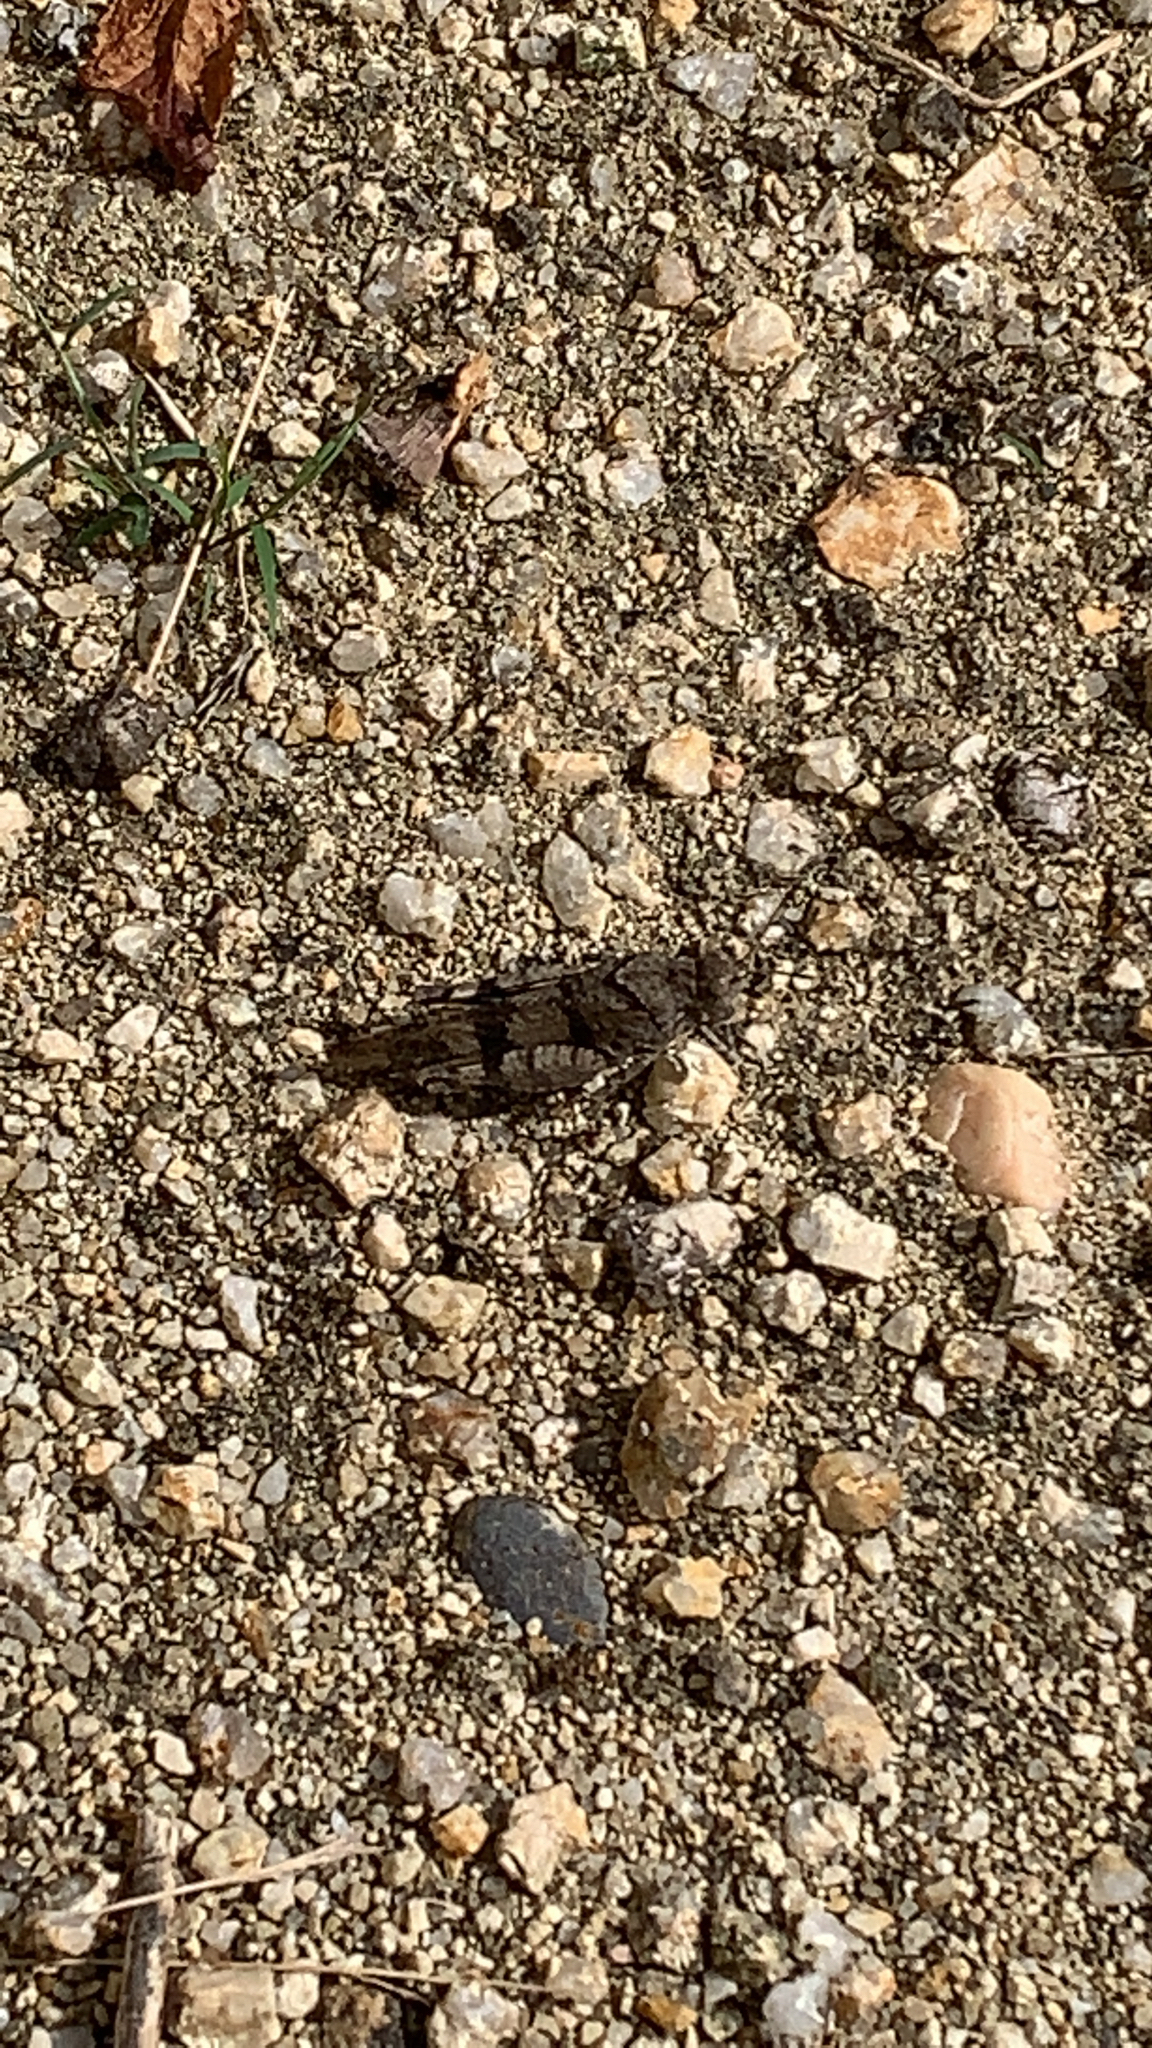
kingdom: Animalia
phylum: Arthropoda
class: Insecta
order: Orthoptera
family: Acrididae
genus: Oedipoda
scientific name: Oedipoda caerulescens
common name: Blue-winged grasshopper
